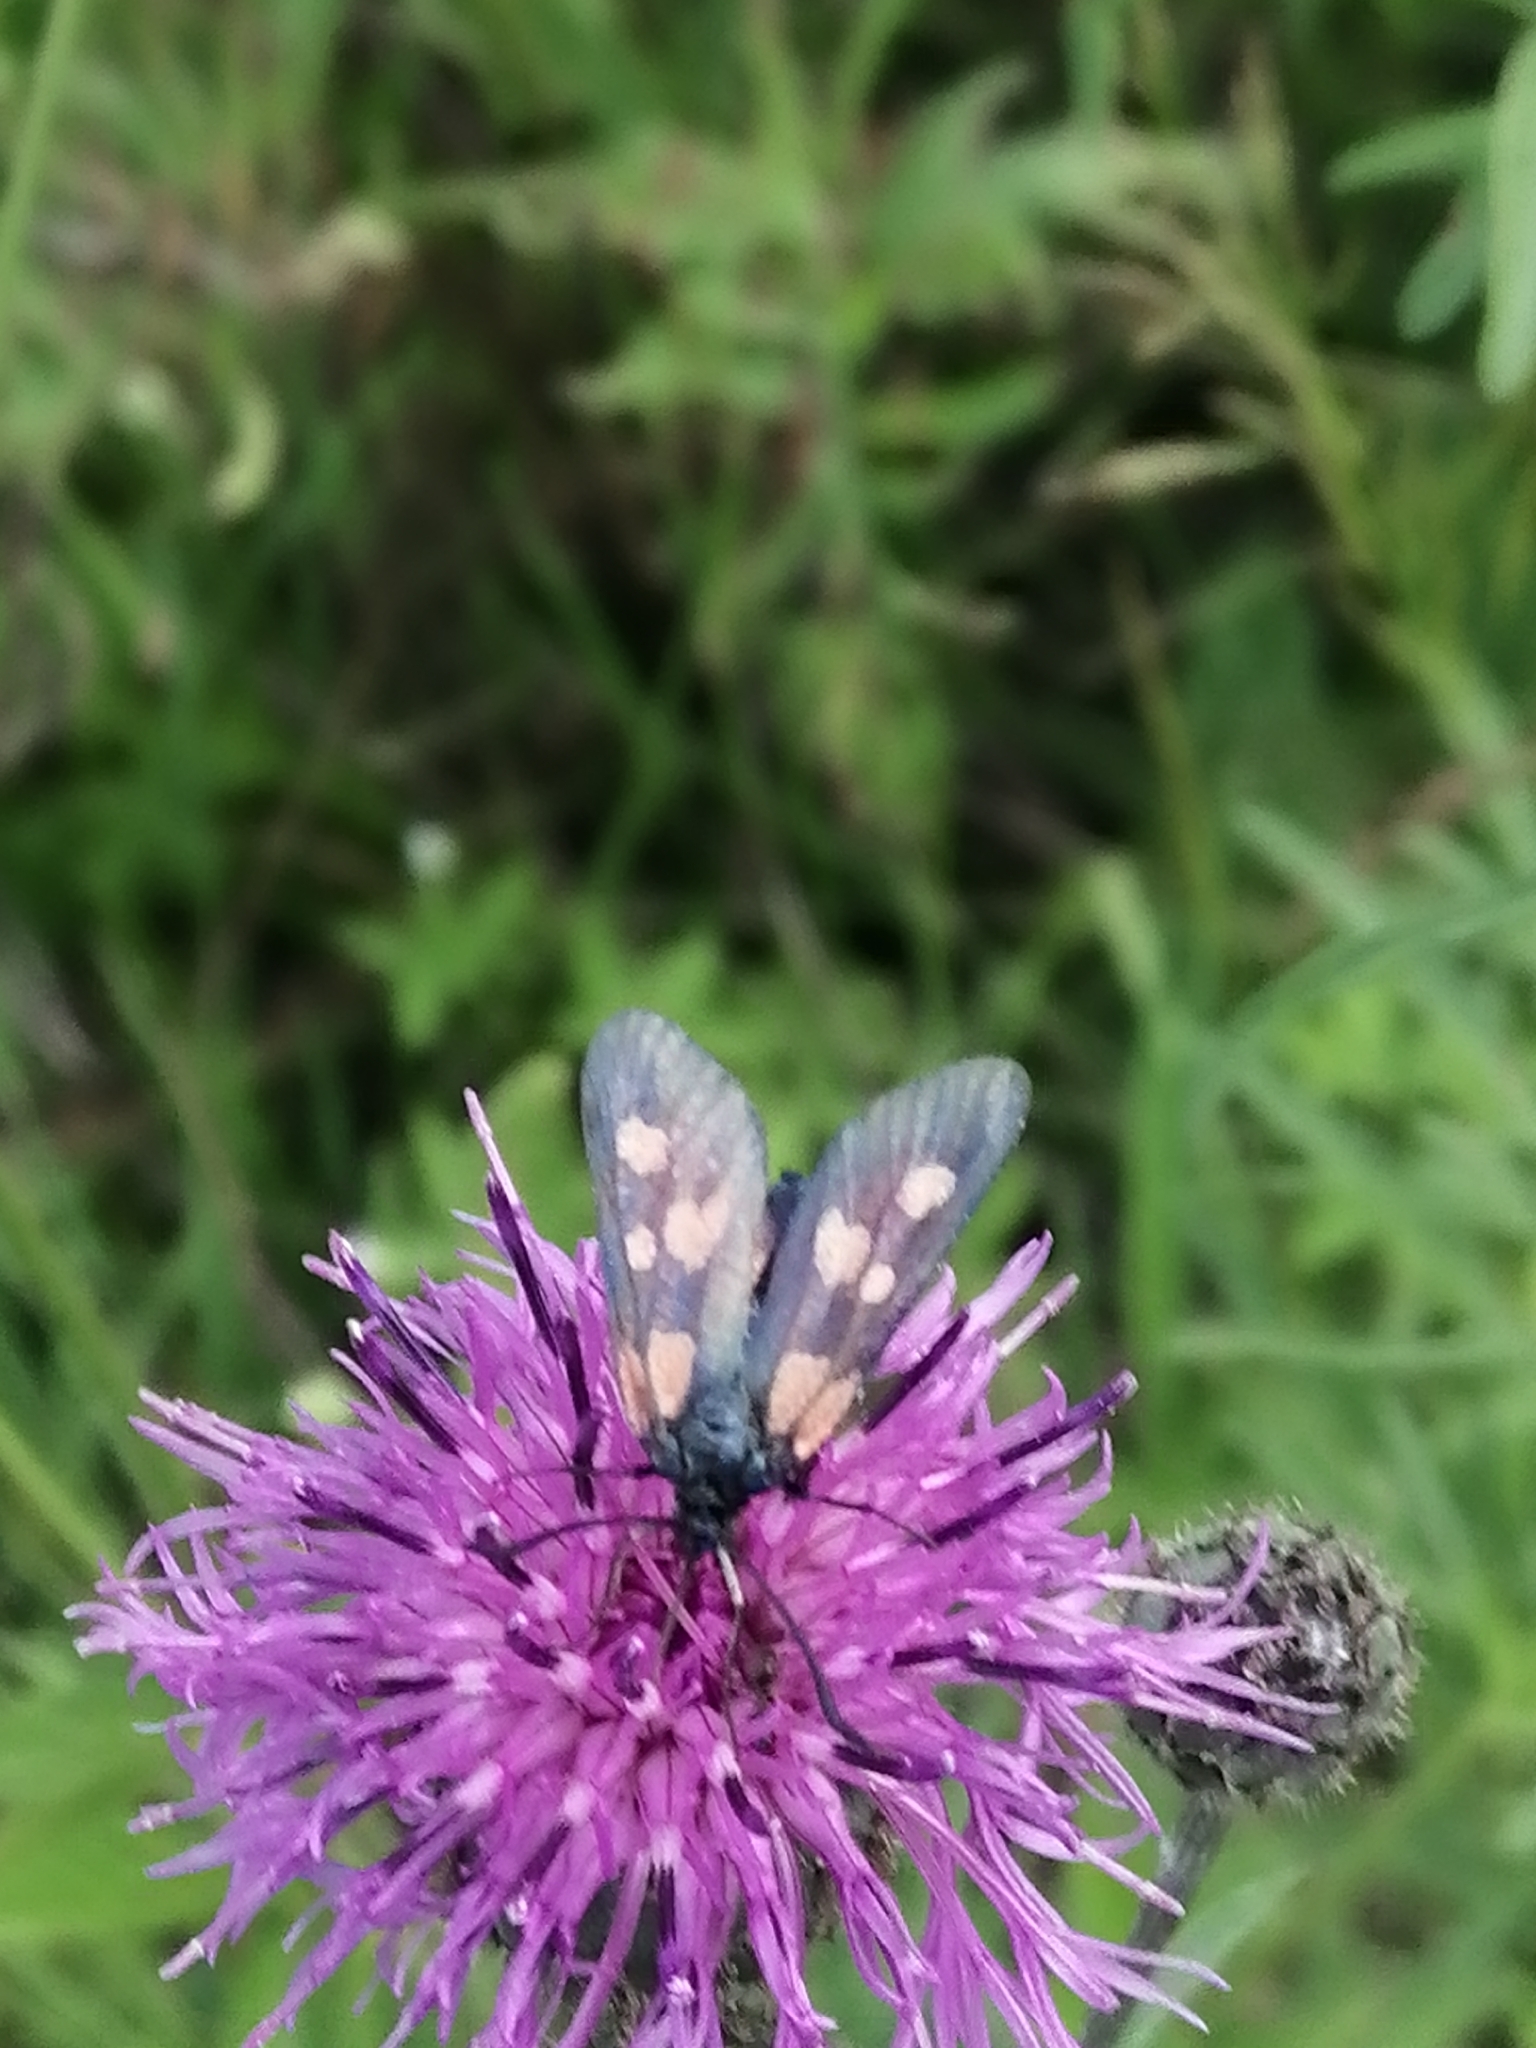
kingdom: Animalia
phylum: Arthropoda
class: Insecta
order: Lepidoptera
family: Zygaenidae
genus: Zygaena
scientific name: Zygaena viciae
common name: New forest burnet
